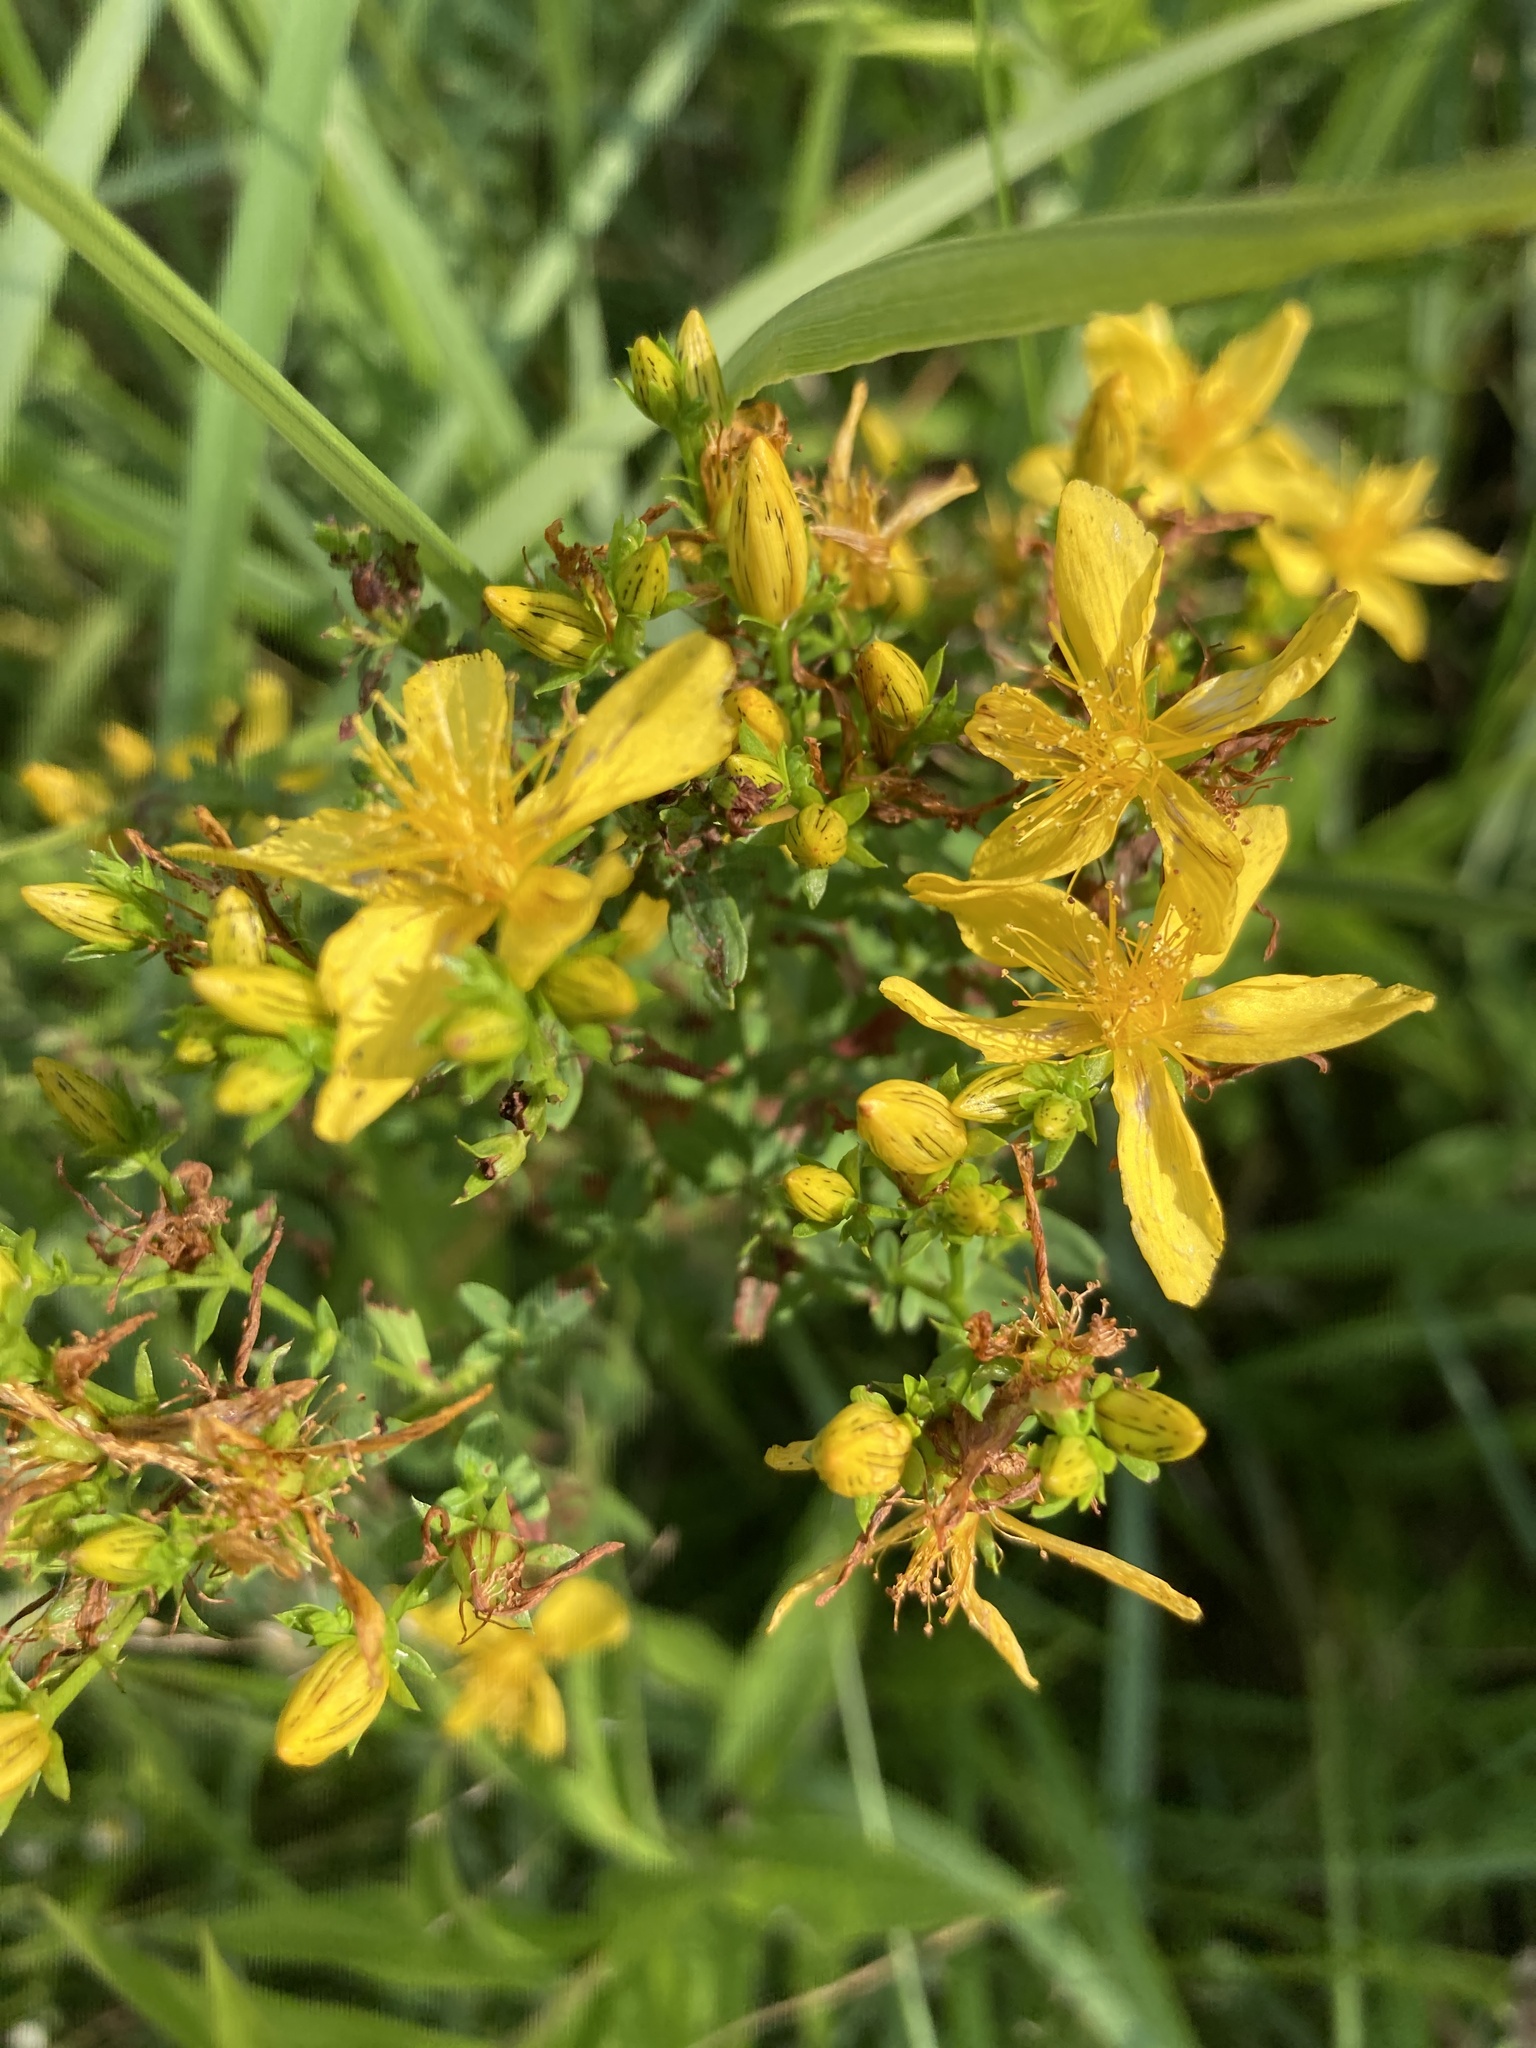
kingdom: Plantae
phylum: Tracheophyta
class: Magnoliopsida
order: Malpighiales
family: Hypericaceae
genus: Hypericum
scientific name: Hypericum perforatum
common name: Common st. johnswort
